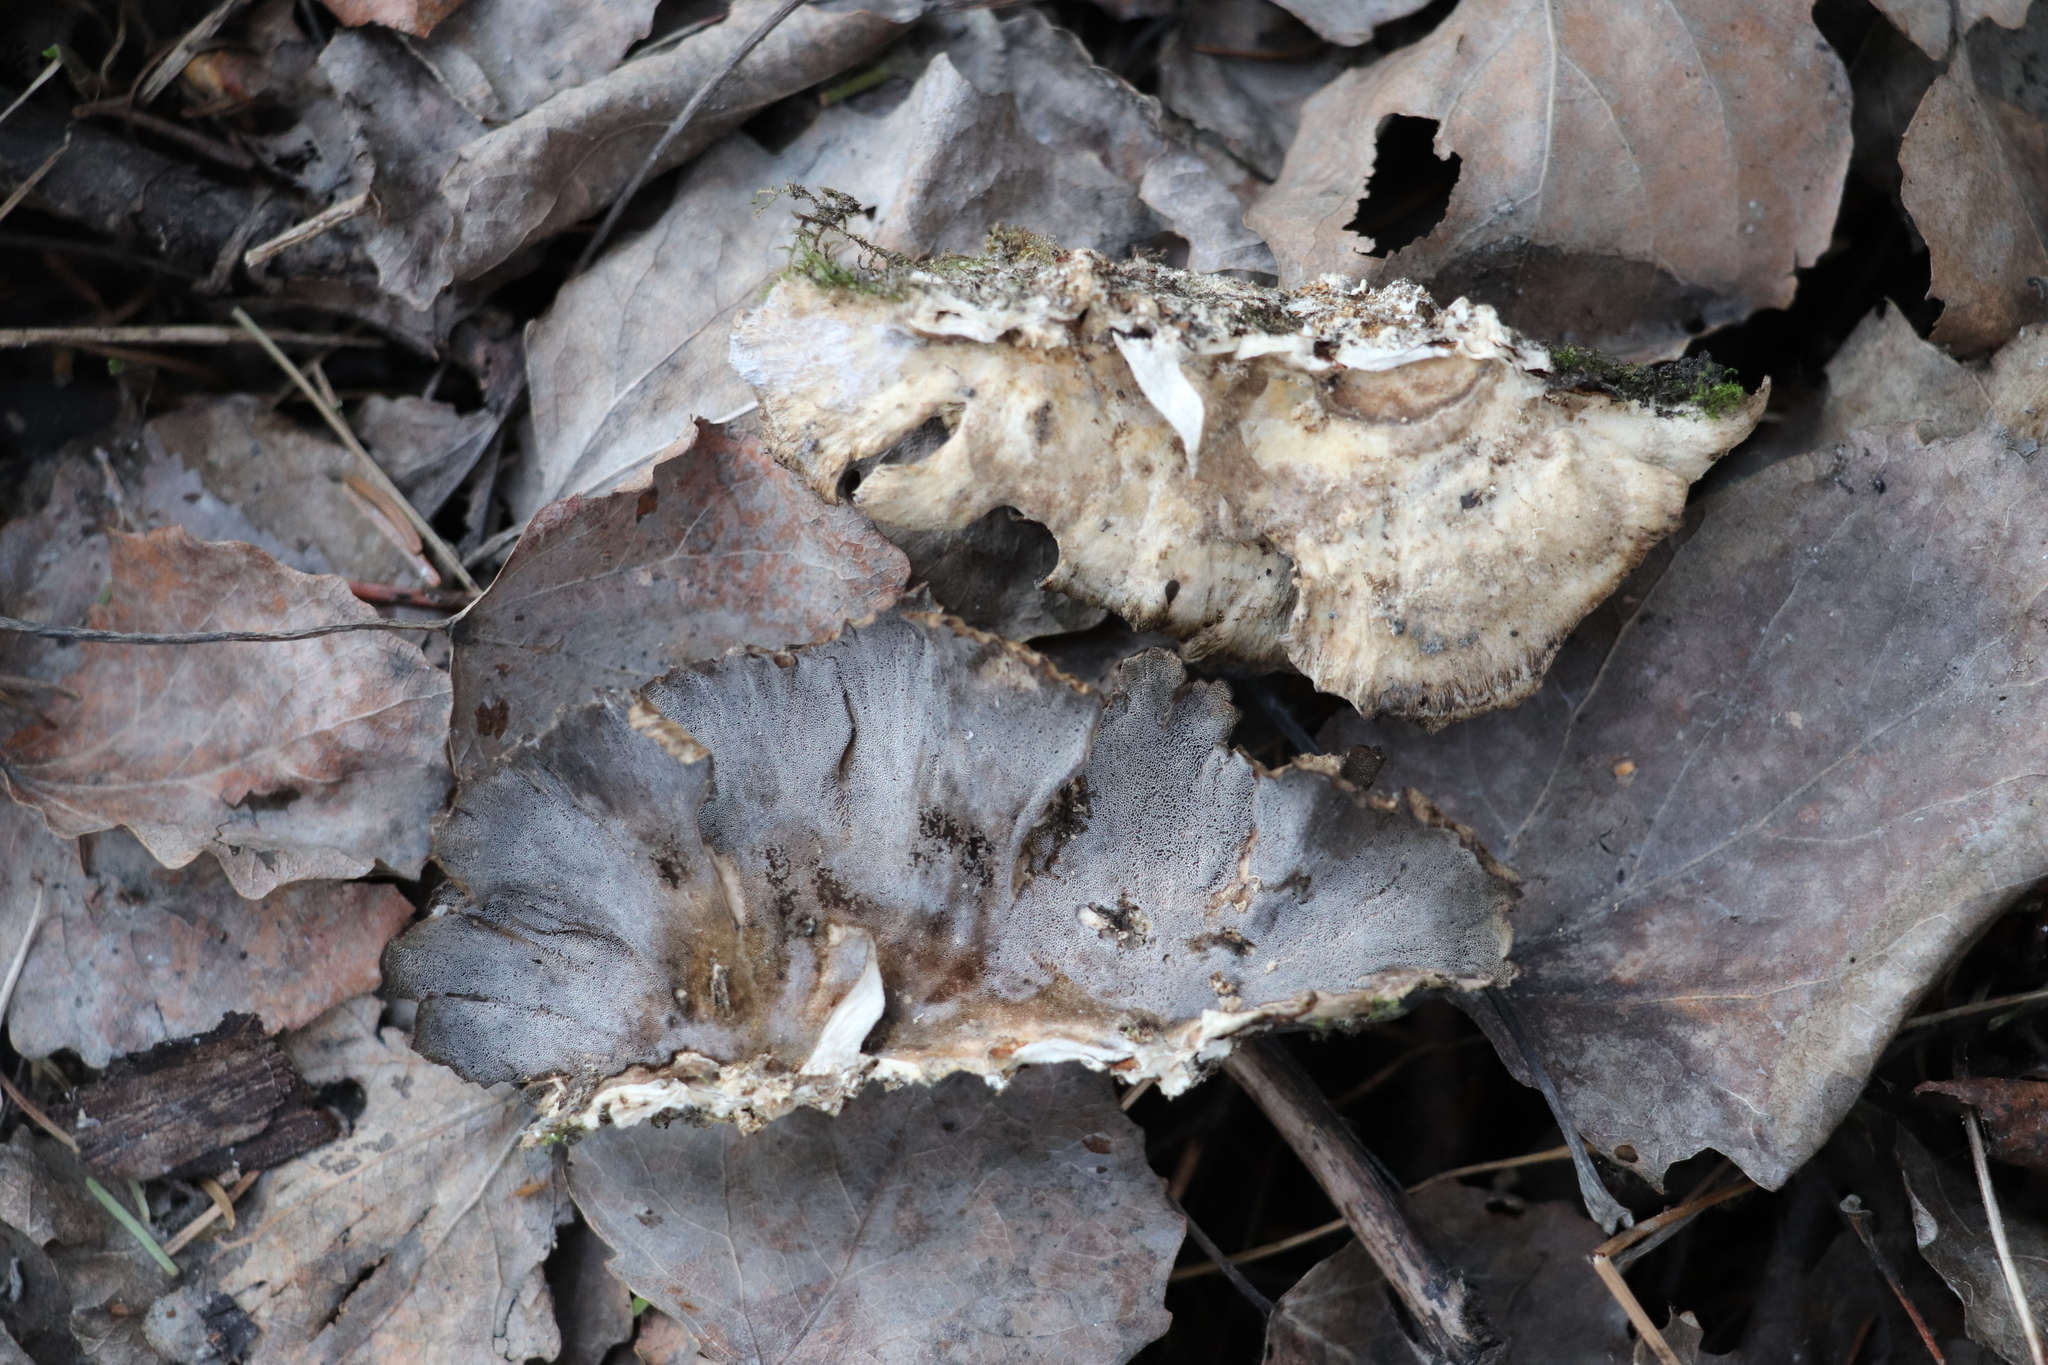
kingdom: Fungi
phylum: Basidiomycota
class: Agaricomycetes
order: Polyporales
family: Phanerochaetaceae
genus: Bjerkandera
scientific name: Bjerkandera adusta
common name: Smoky bracket
